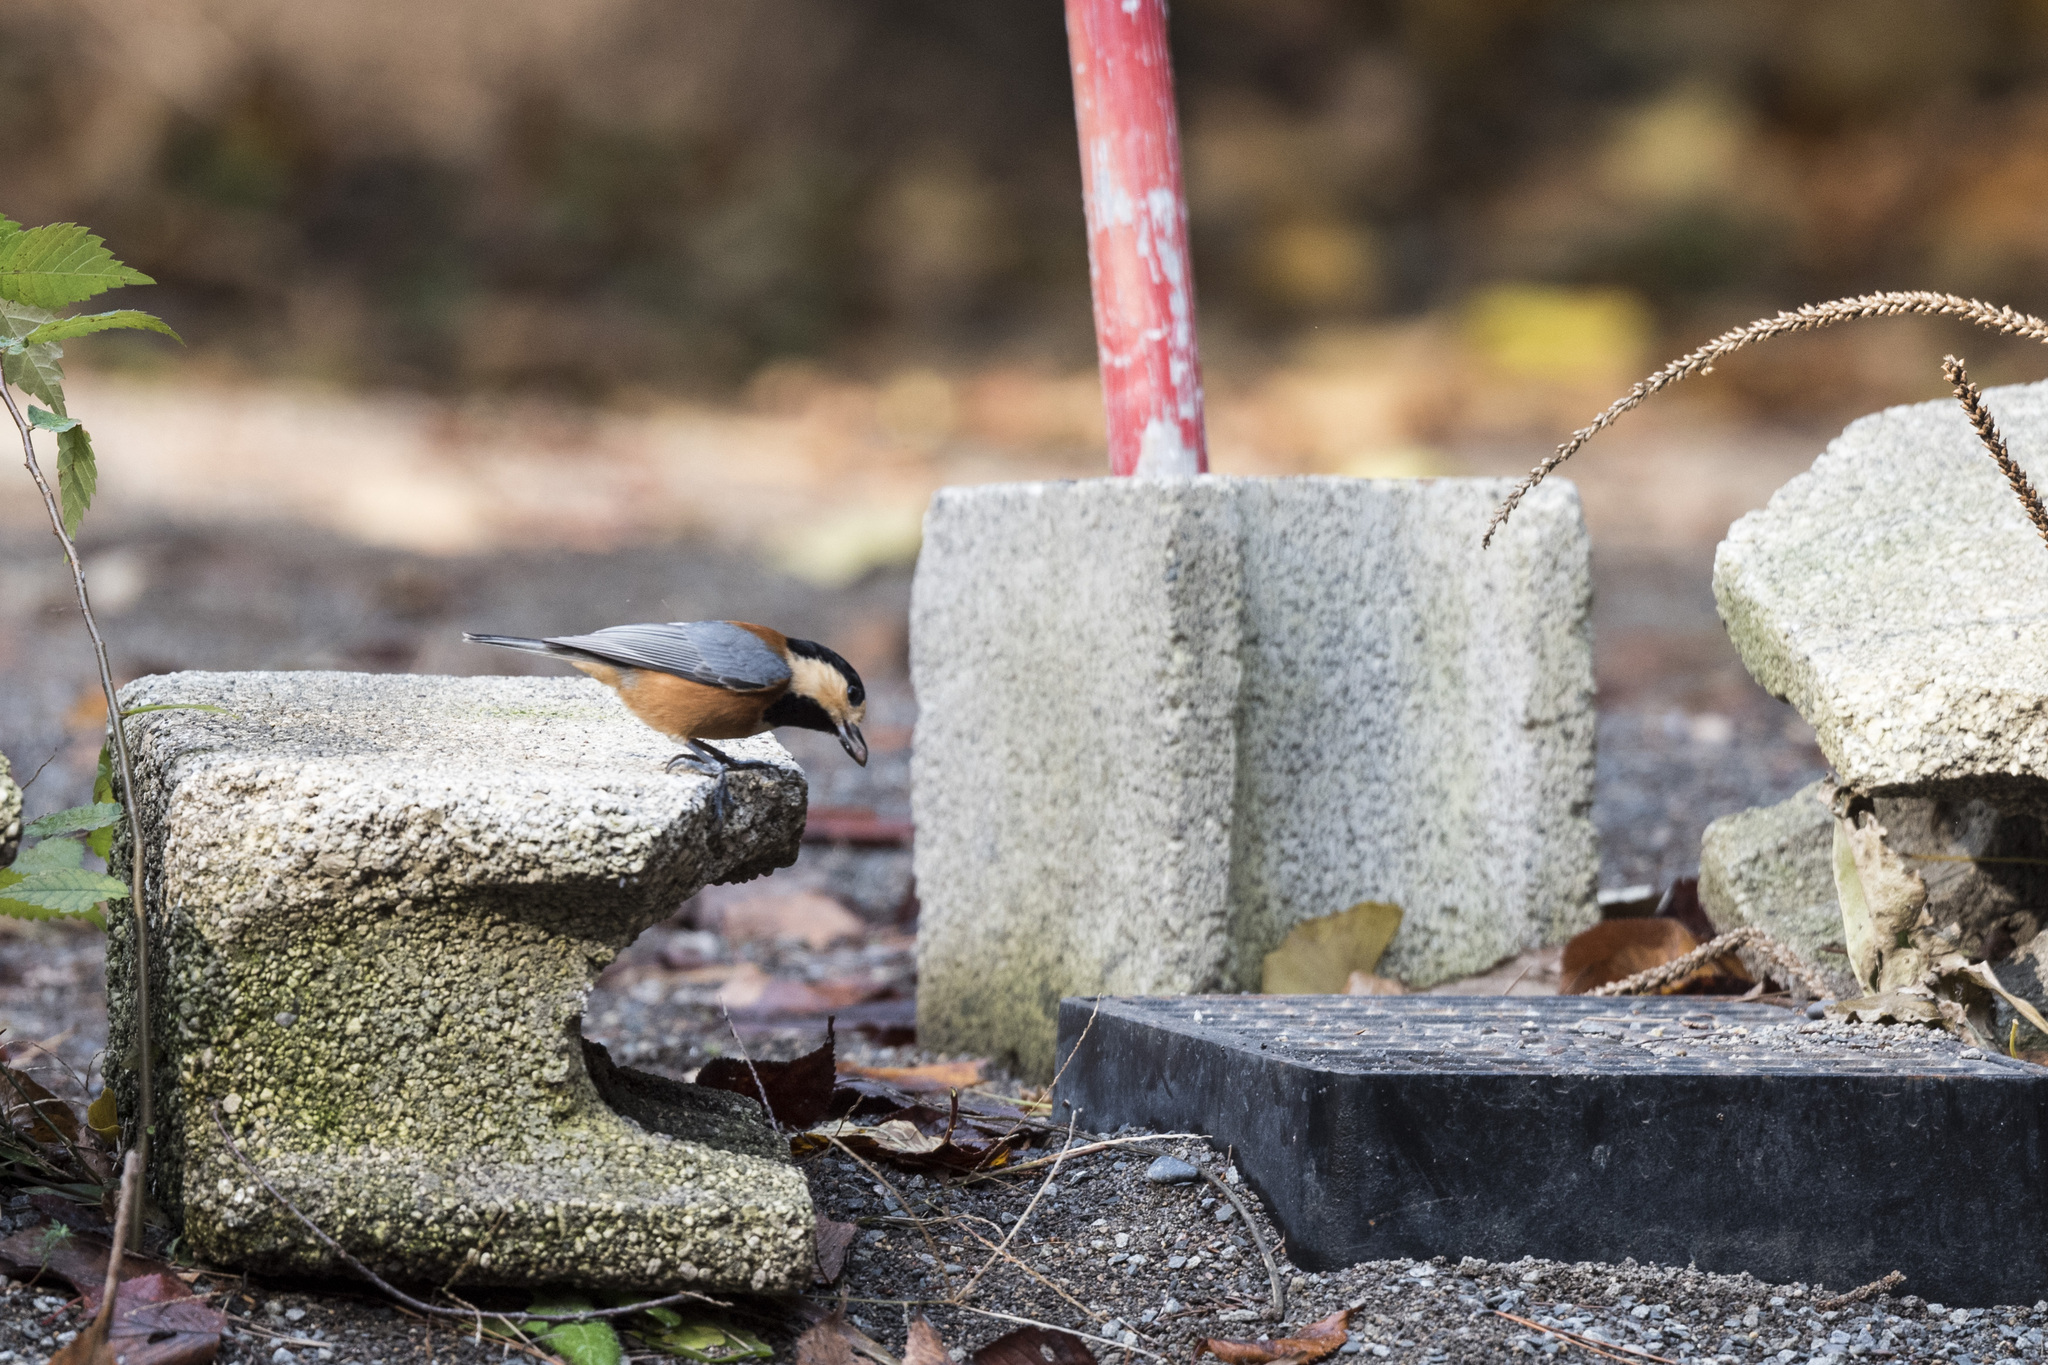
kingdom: Animalia
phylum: Chordata
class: Aves
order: Passeriformes
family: Paridae
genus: Poecile
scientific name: Poecile varius
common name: Varied tit
